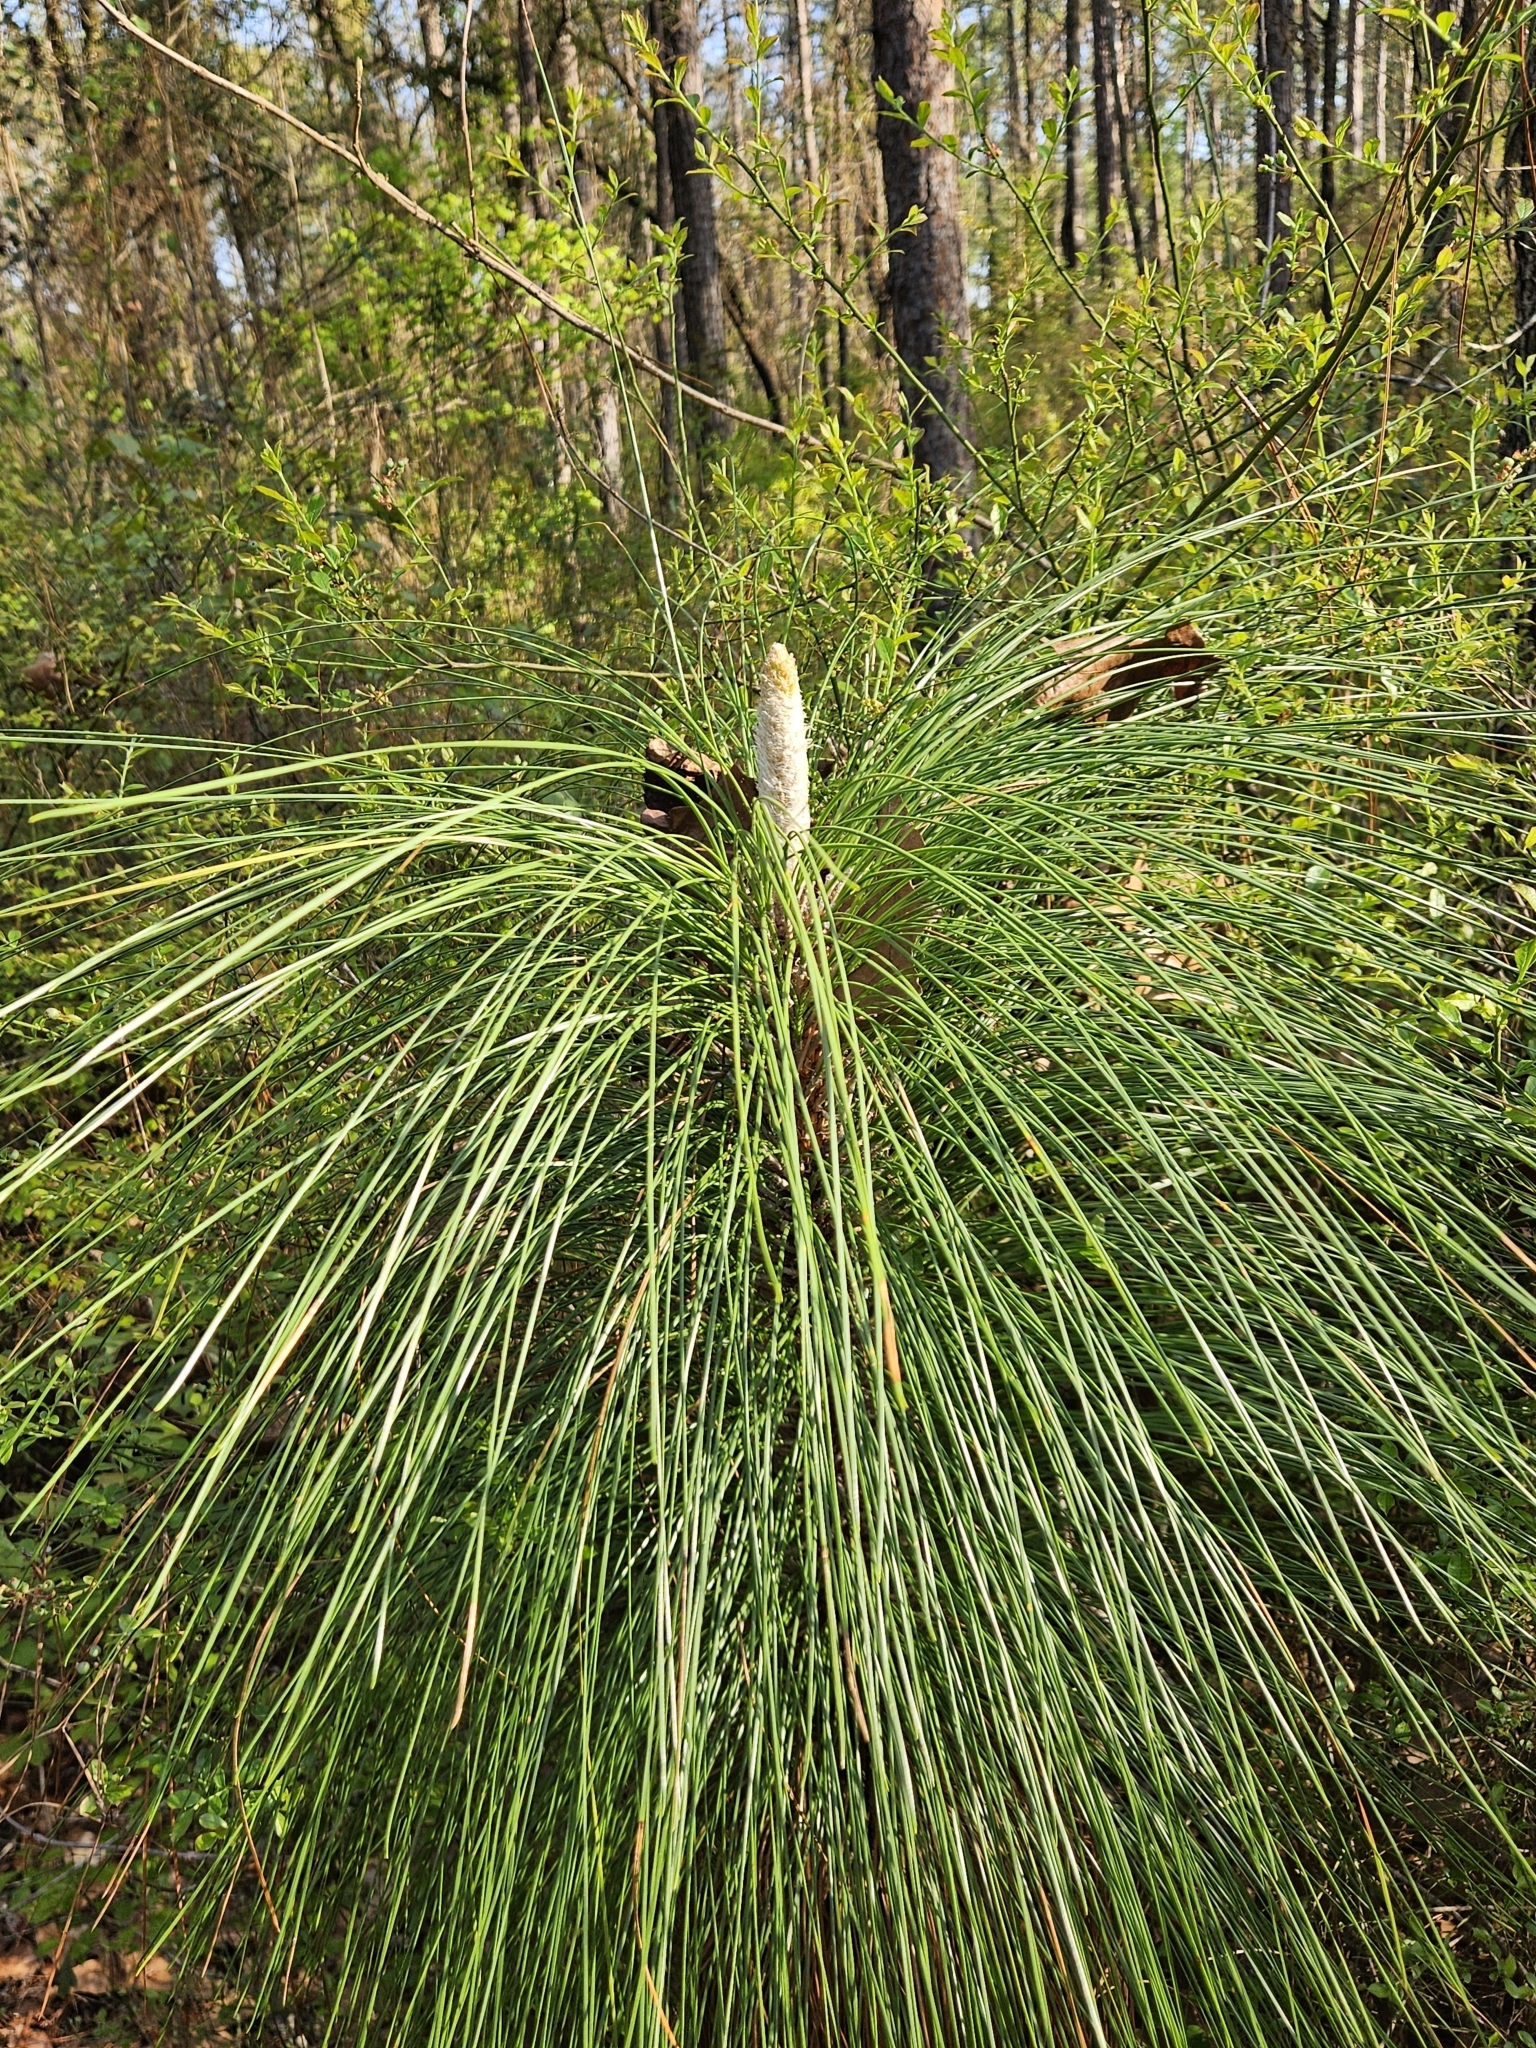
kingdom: Plantae
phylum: Tracheophyta
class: Pinopsida
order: Pinales
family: Pinaceae
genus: Pinus
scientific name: Pinus palustris
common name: Longleaf pine
